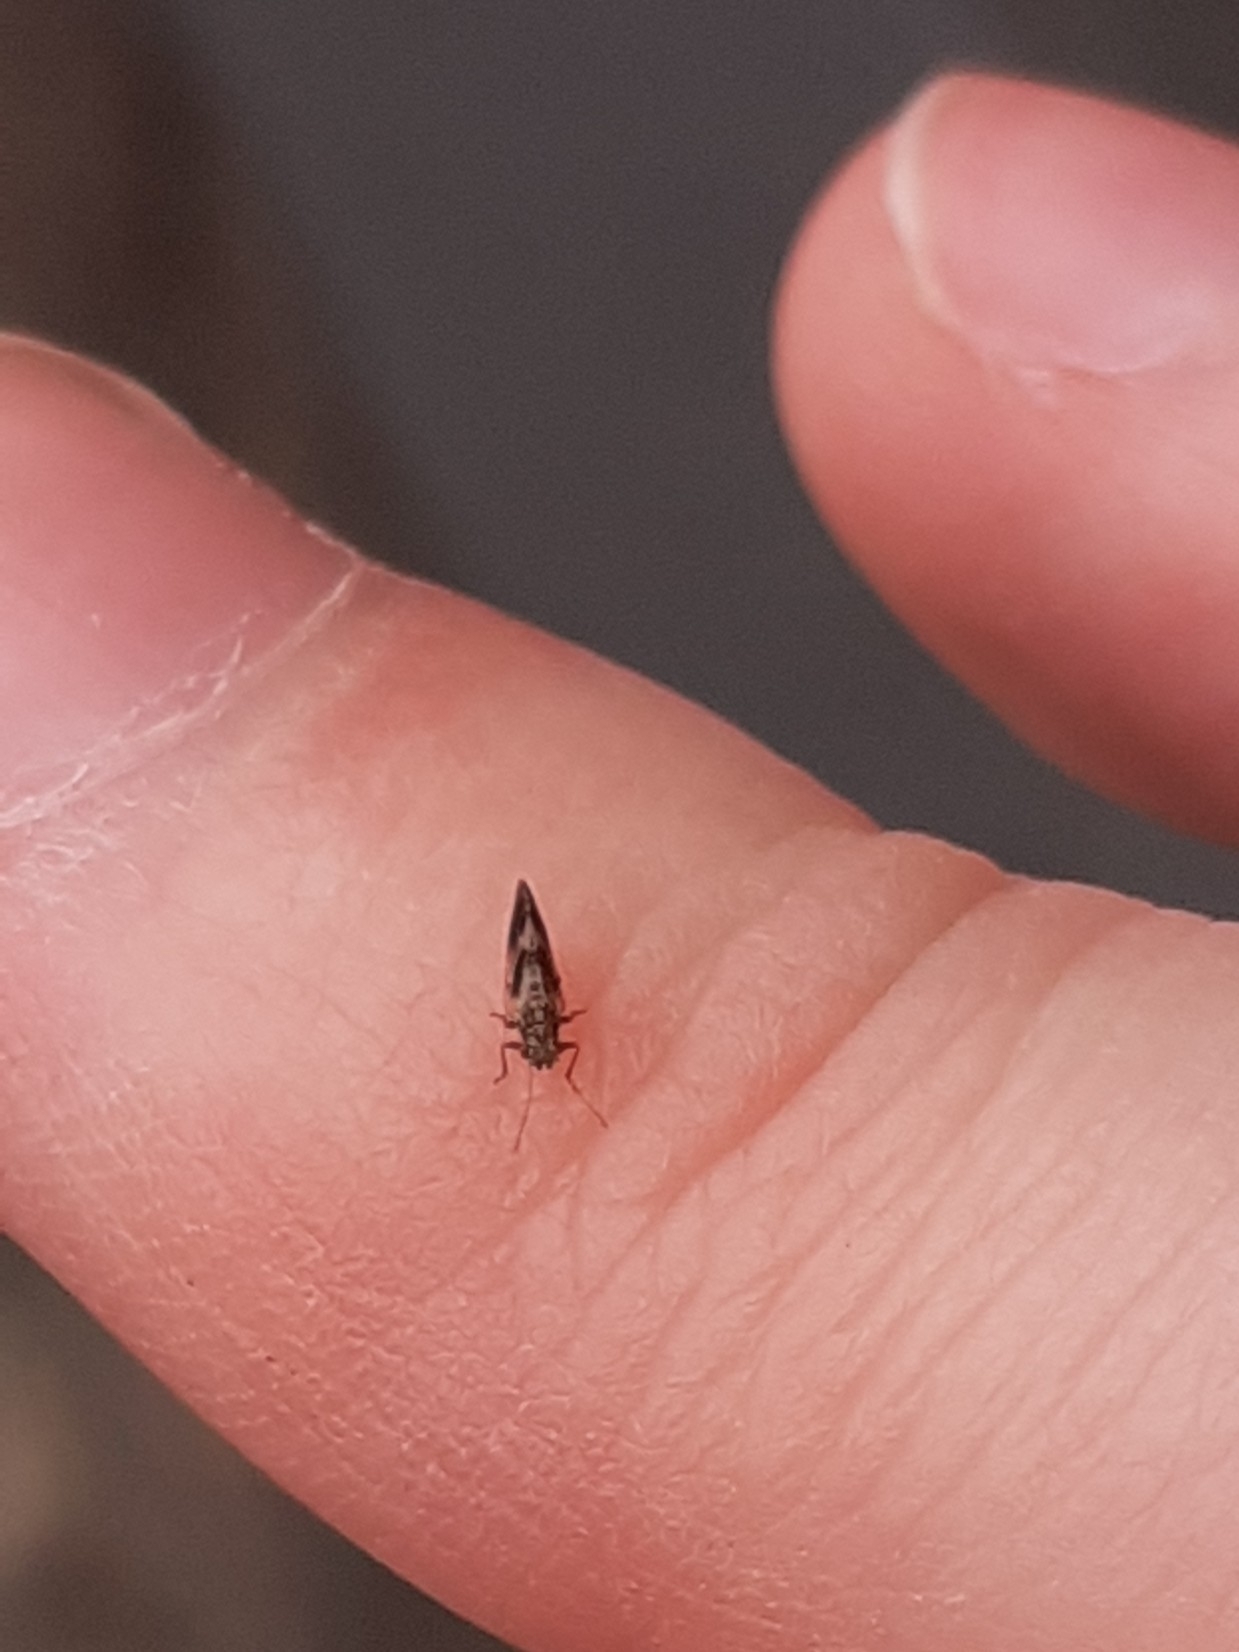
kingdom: Animalia
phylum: Arthropoda
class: Insecta
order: Psocodea
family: Stenopsocidae
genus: Graphopsocus
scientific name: Graphopsocus cruciatus
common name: Lizard bark louse
